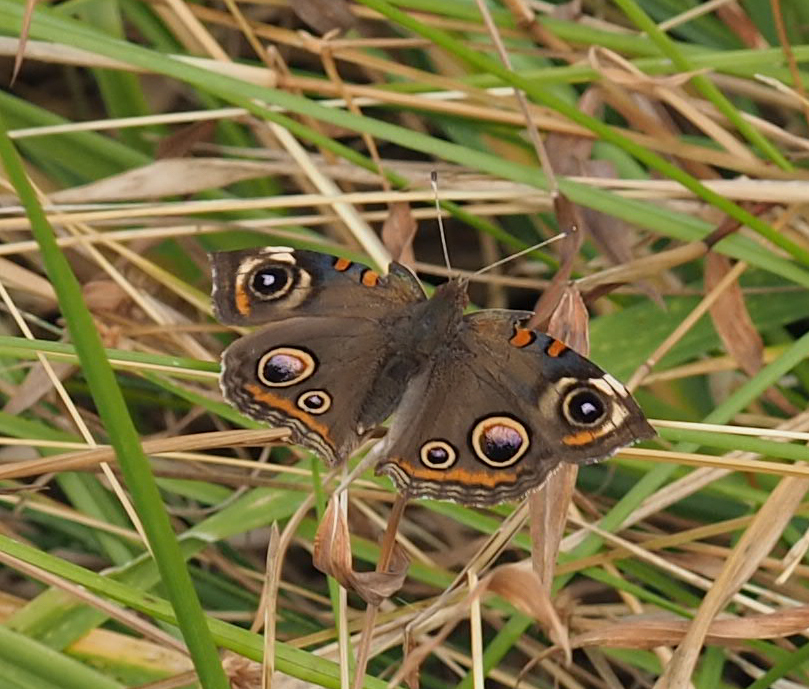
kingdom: Animalia
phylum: Arthropoda
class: Insecta
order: Lepidoptera
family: Nymphalidae
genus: Junonia
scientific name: Junonia coenia
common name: Common buckeye
